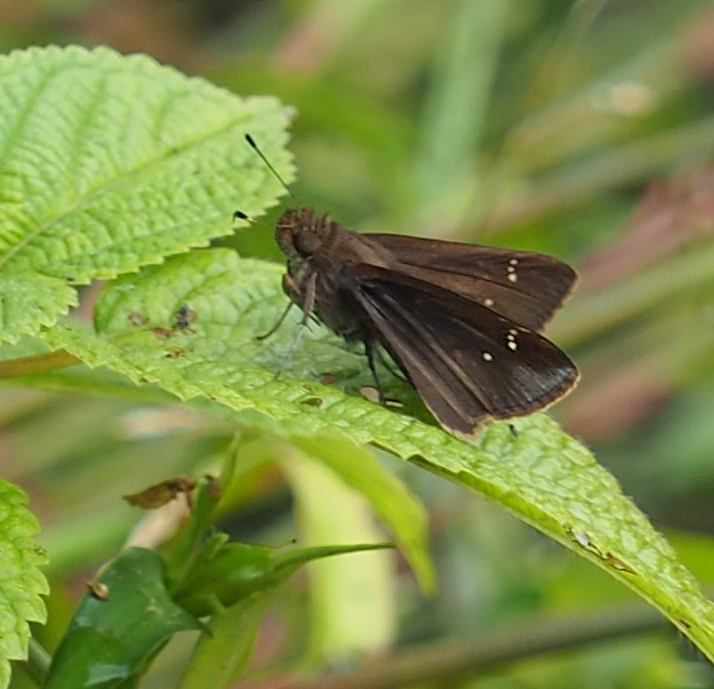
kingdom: Animalia
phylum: Arthropoda
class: Insecta
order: Lepidoptera
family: Hesperiidae
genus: Lerema
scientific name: Lerema accius
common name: Clouded skipper
